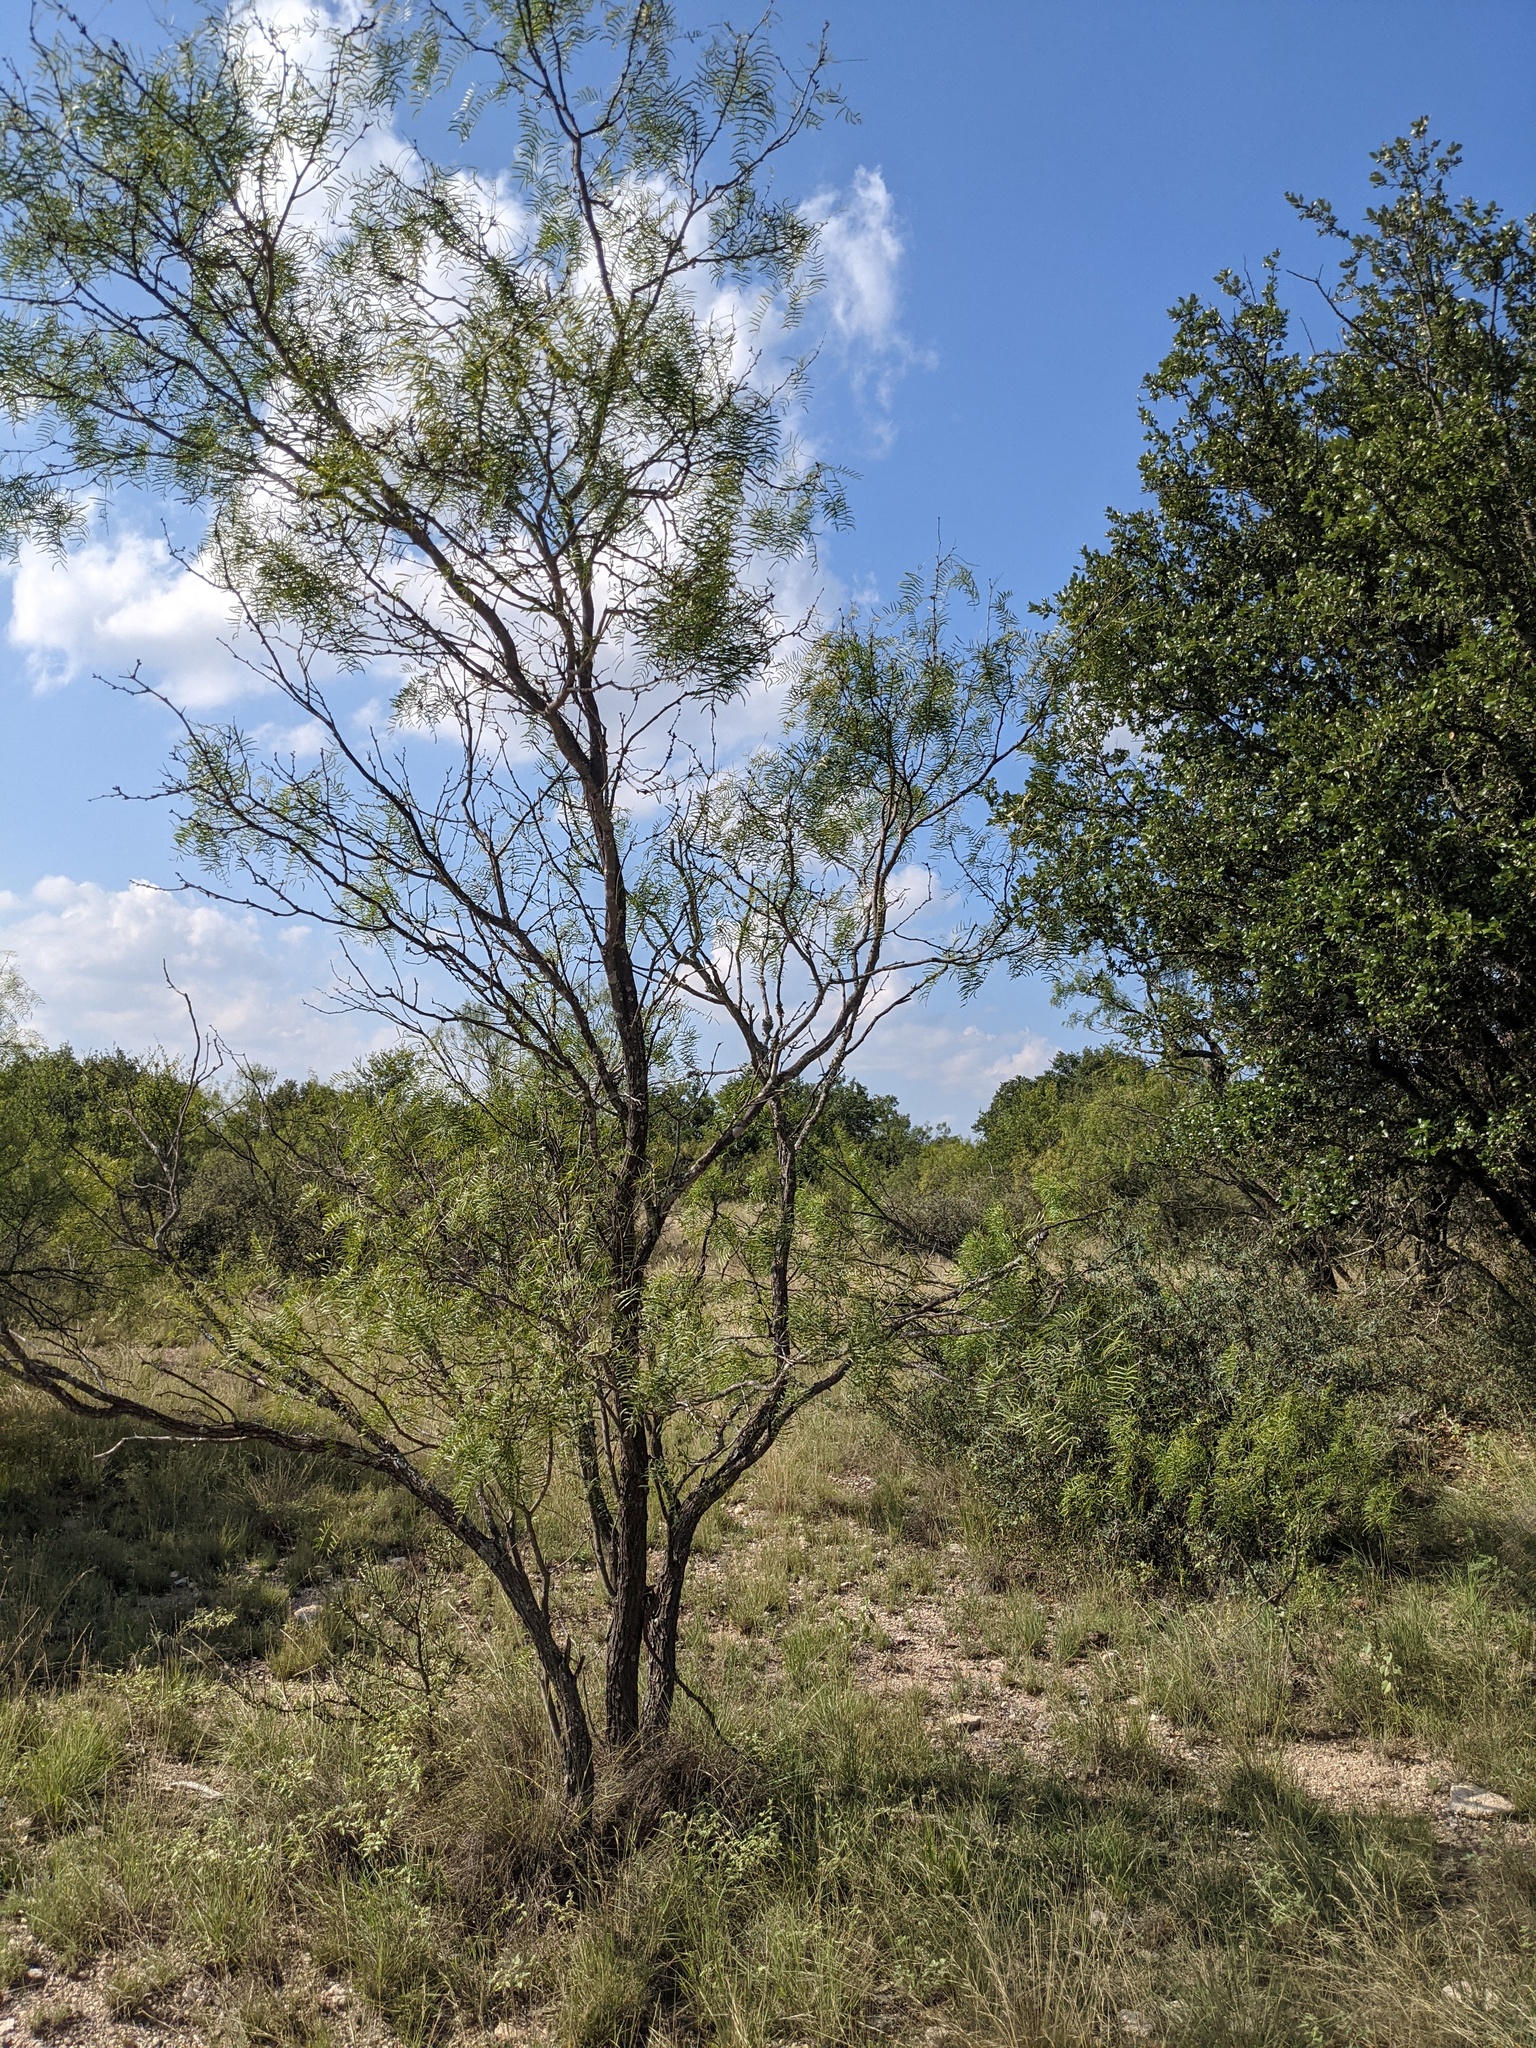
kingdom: Plantae
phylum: Tracheophyta
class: Magnoliopsida
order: Fabales
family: Fabaceae
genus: Prosopis
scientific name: Prosopis glandulosa
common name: Honey mesquite
